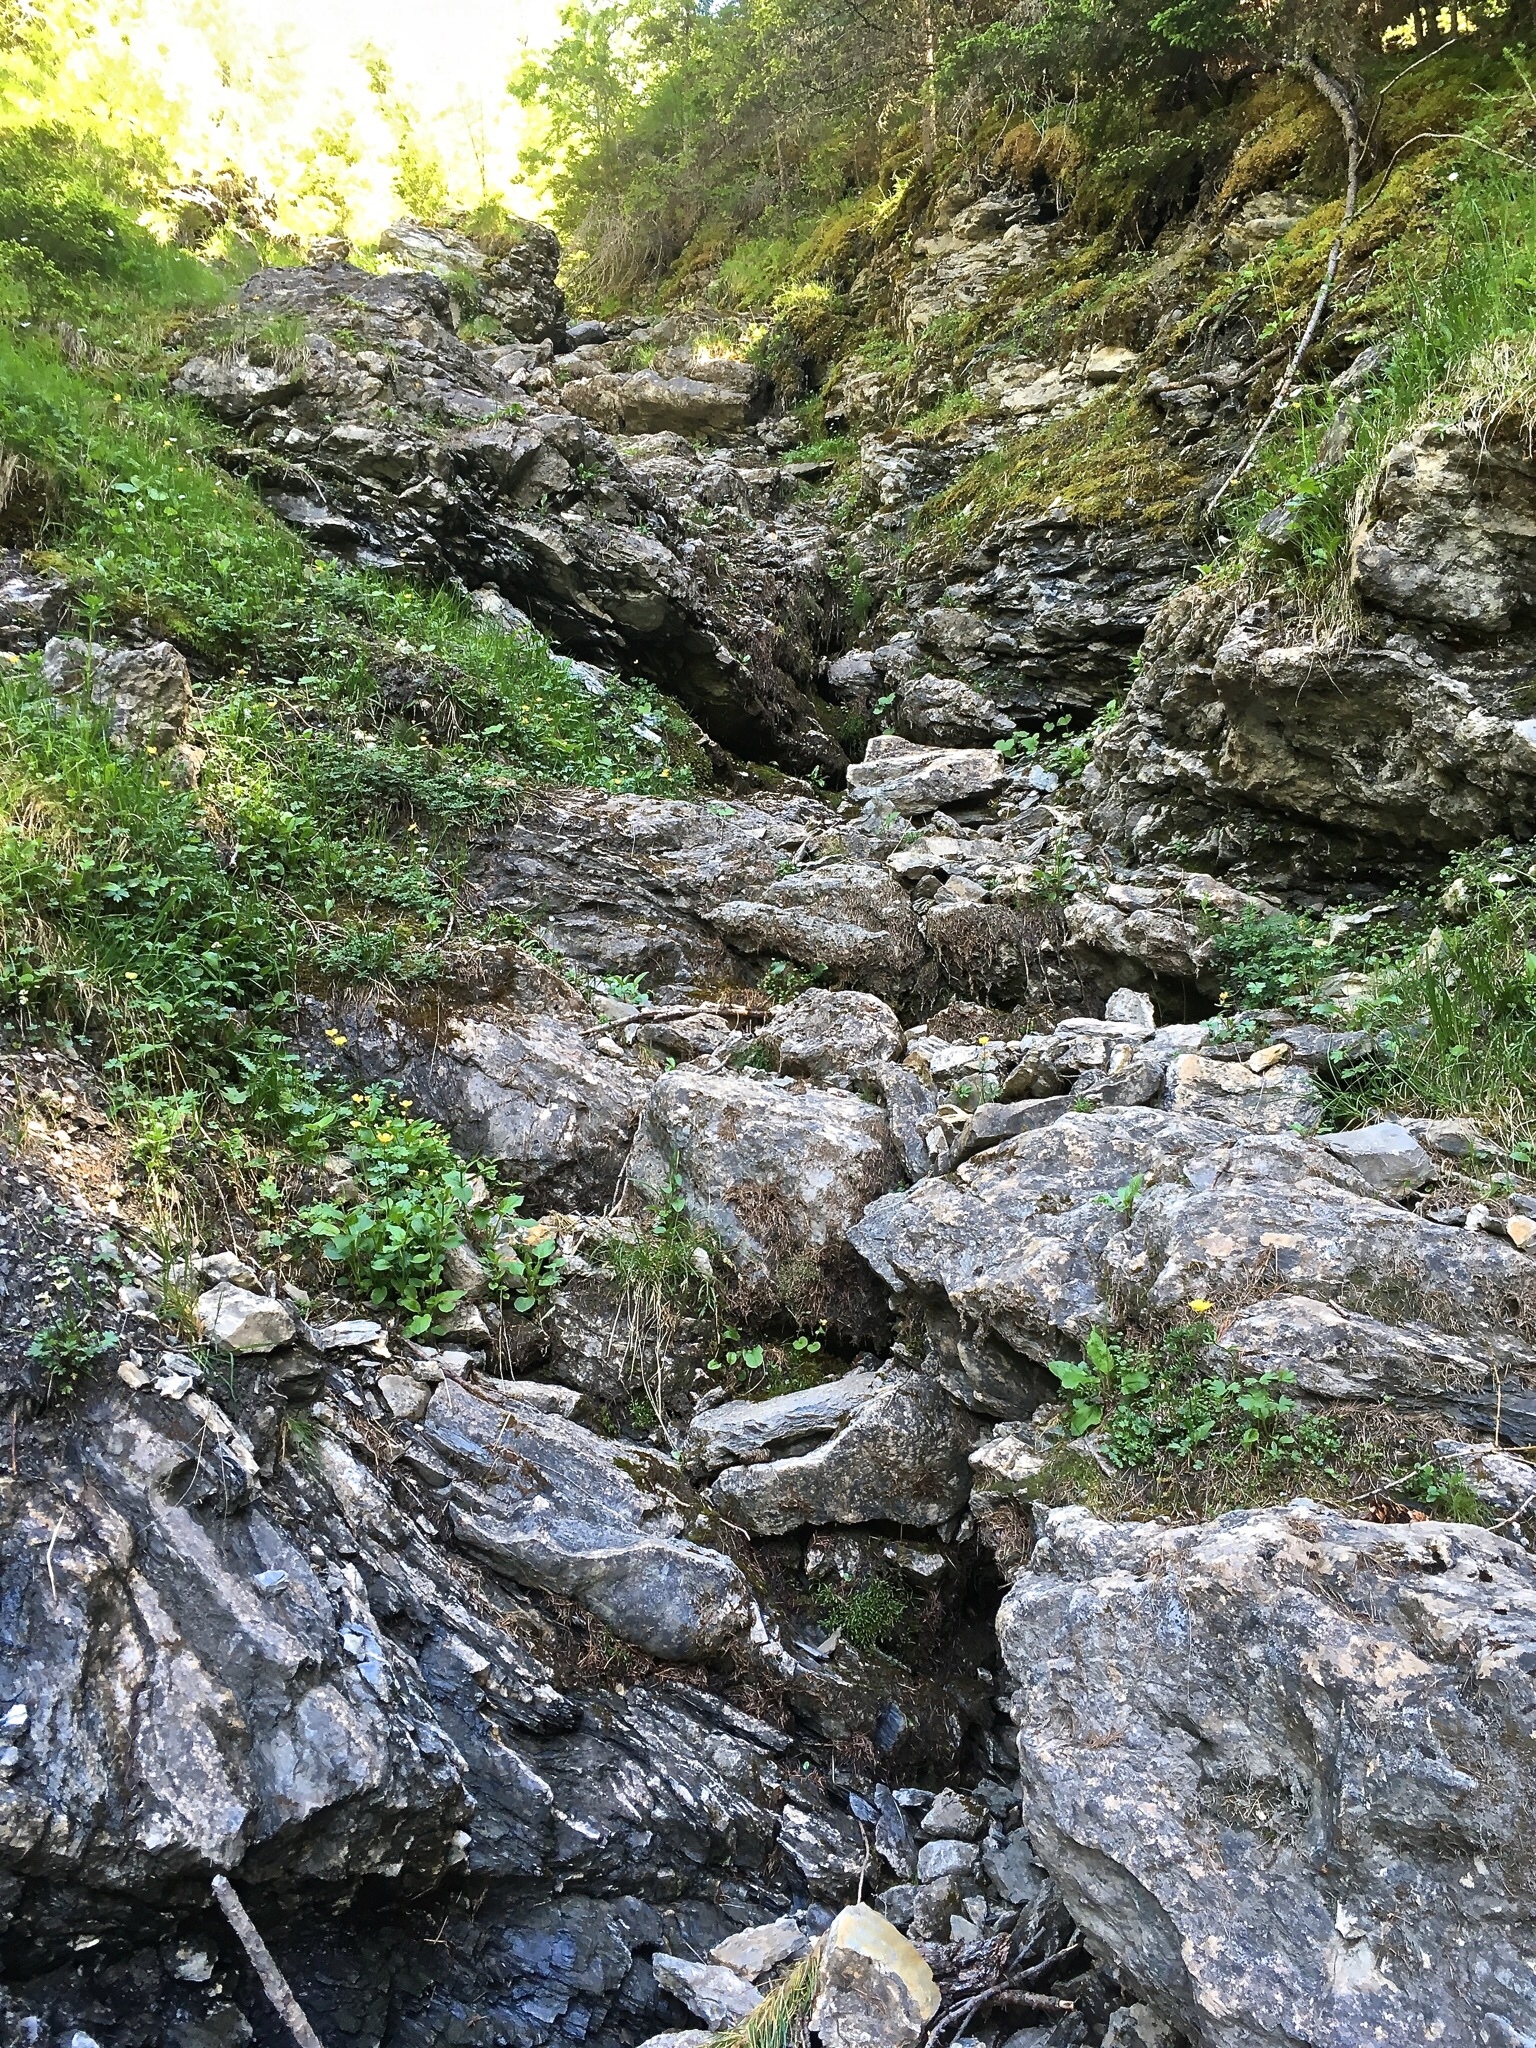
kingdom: Plantae
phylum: Tracheophyta
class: Magnoliopsida
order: Caryophyllales
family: Caryophyllaceae
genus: Heliosperma
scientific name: Heliosperma pusillum
